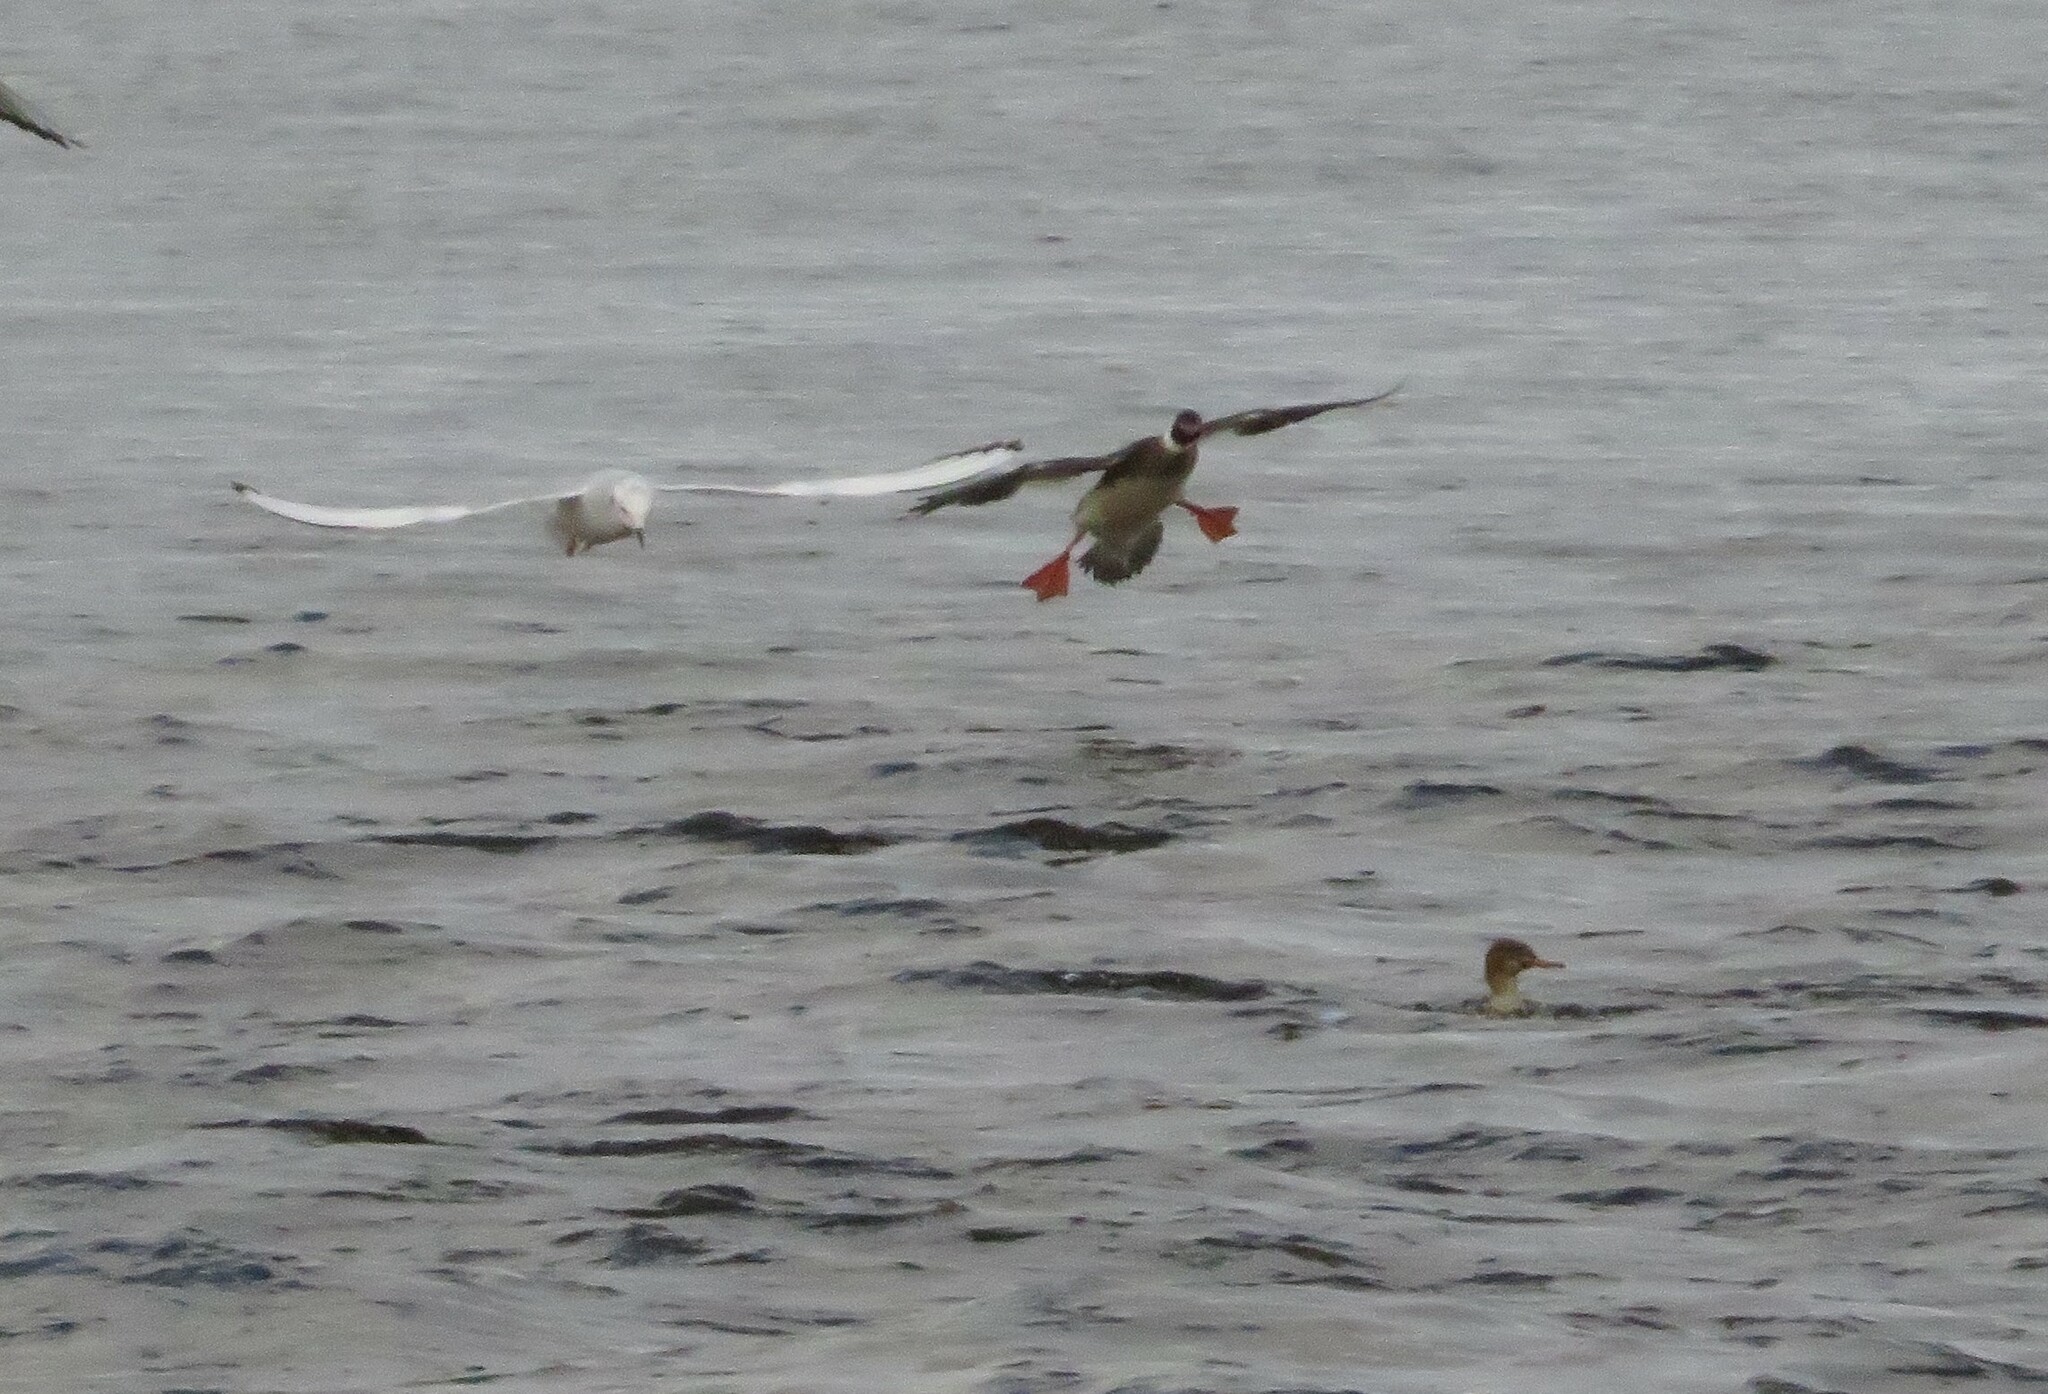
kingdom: Animalia
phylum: Chordata
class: Aves
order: Anseriformes
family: Anatidae
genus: Mergus
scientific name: Mergus serrator
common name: Red-breasted merganser
